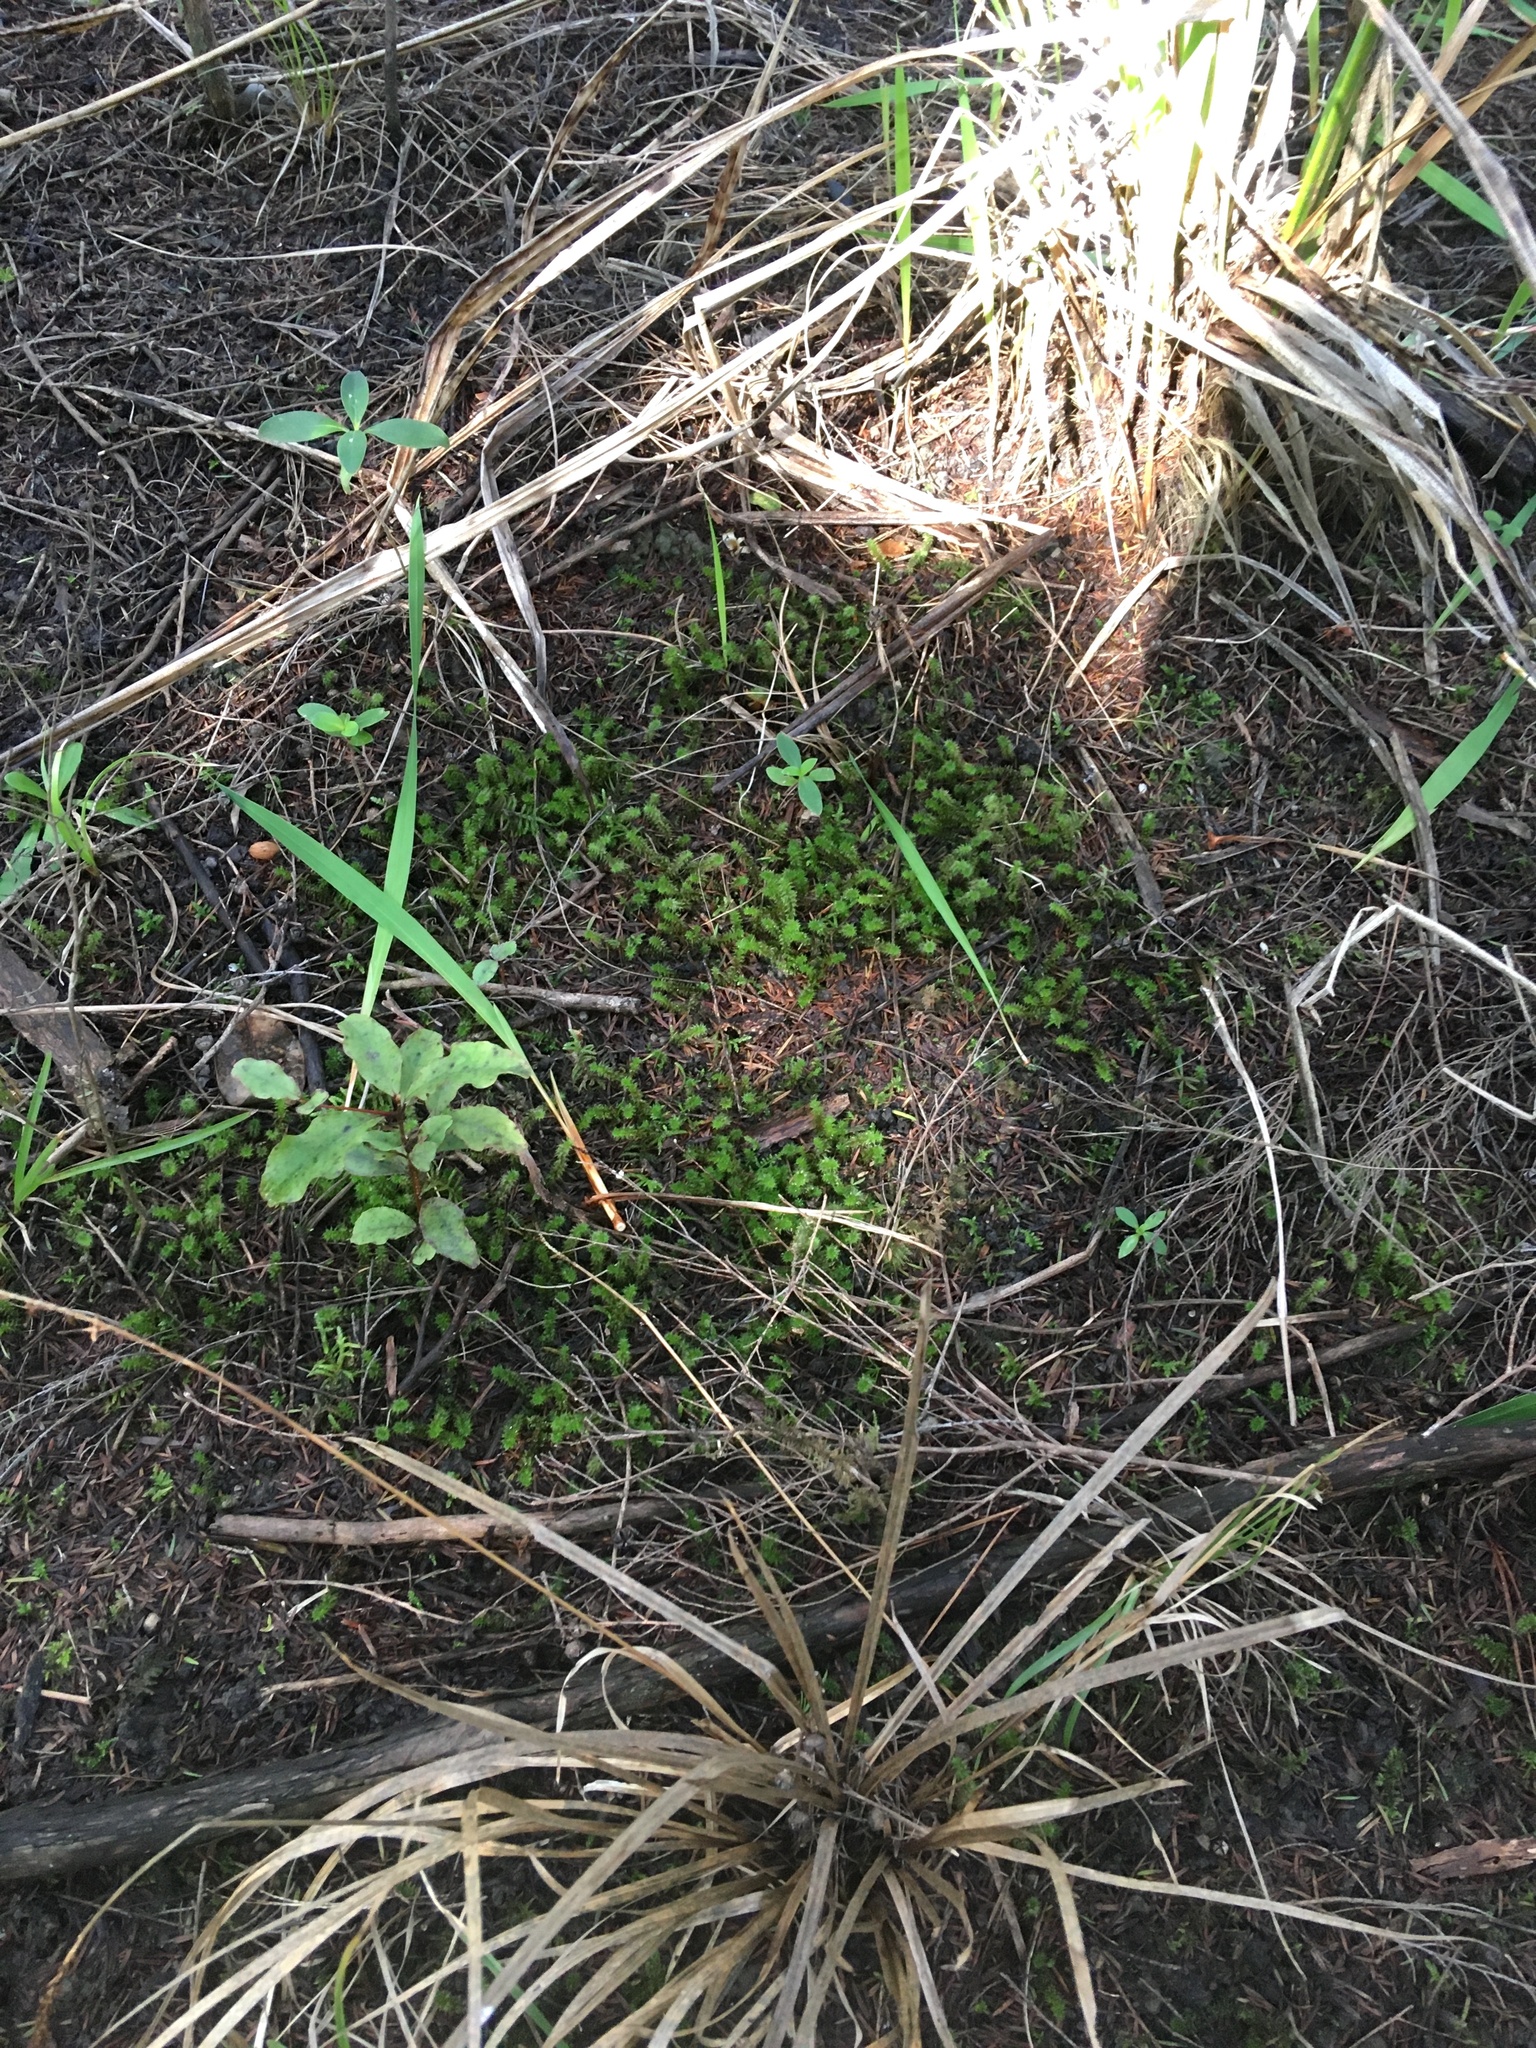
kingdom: Plantae
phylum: Bryophyta
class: Bryopsida
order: Ptychomniales
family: Ptychomniaceae
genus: Ptychomnion
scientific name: Ptychomnion aciculare
